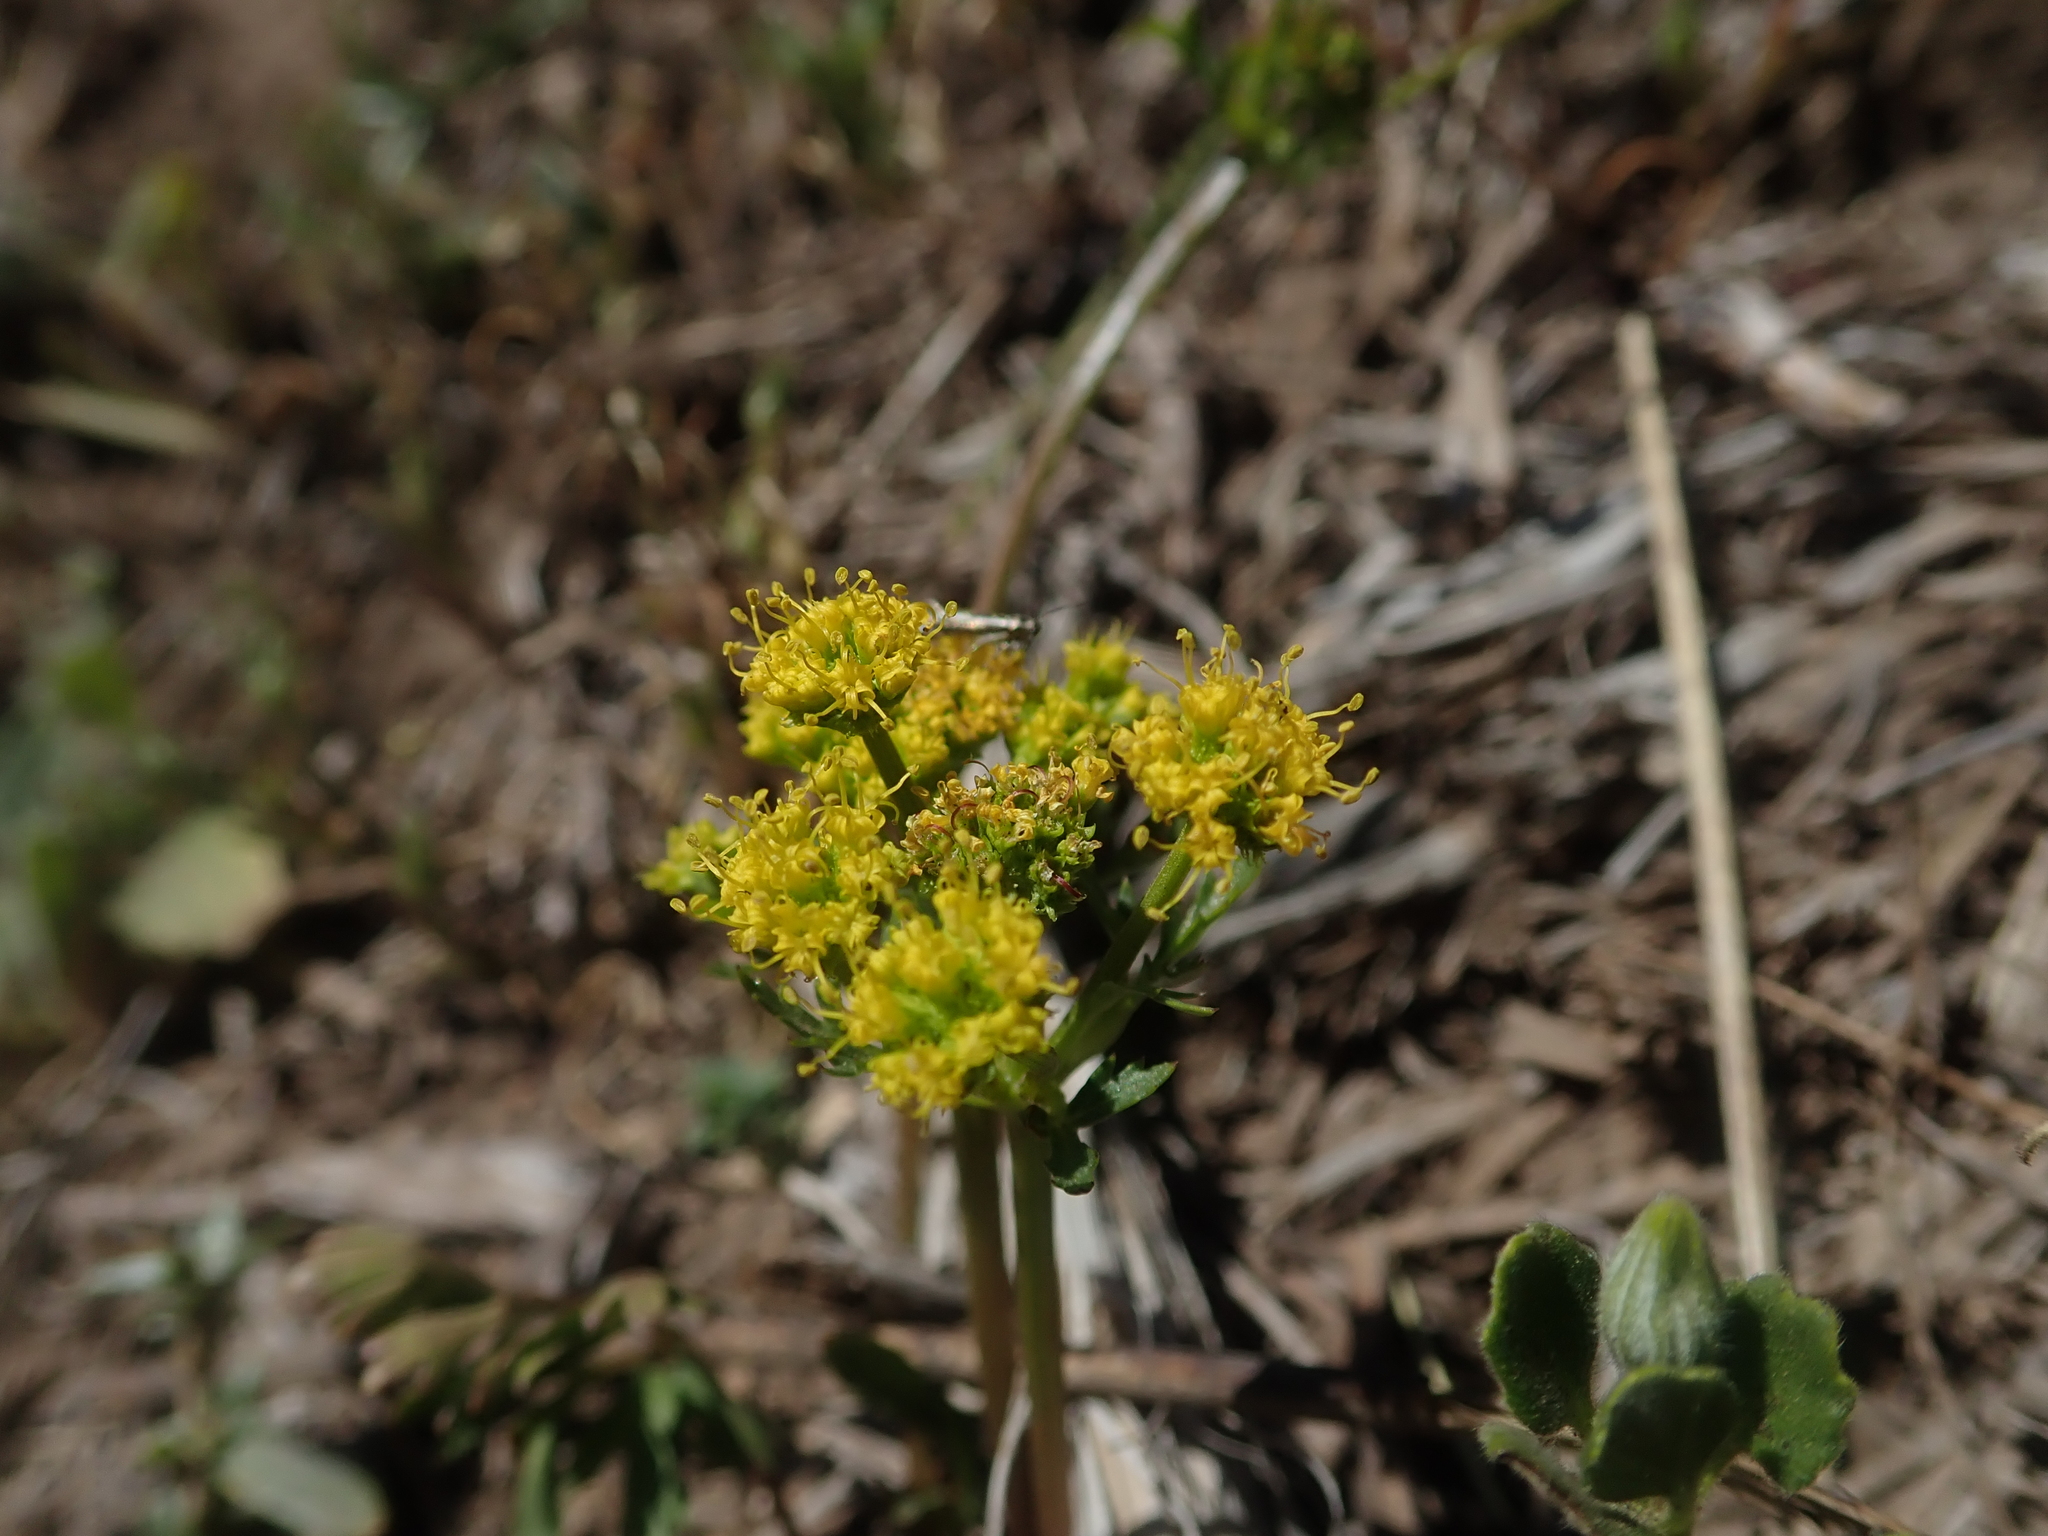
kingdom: Plantae
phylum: Tracheophyta
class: Magnoliopsida
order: Apiales
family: Apiaceae
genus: Sanicula
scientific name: Sanicula graveolens
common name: Sierra sanicle
